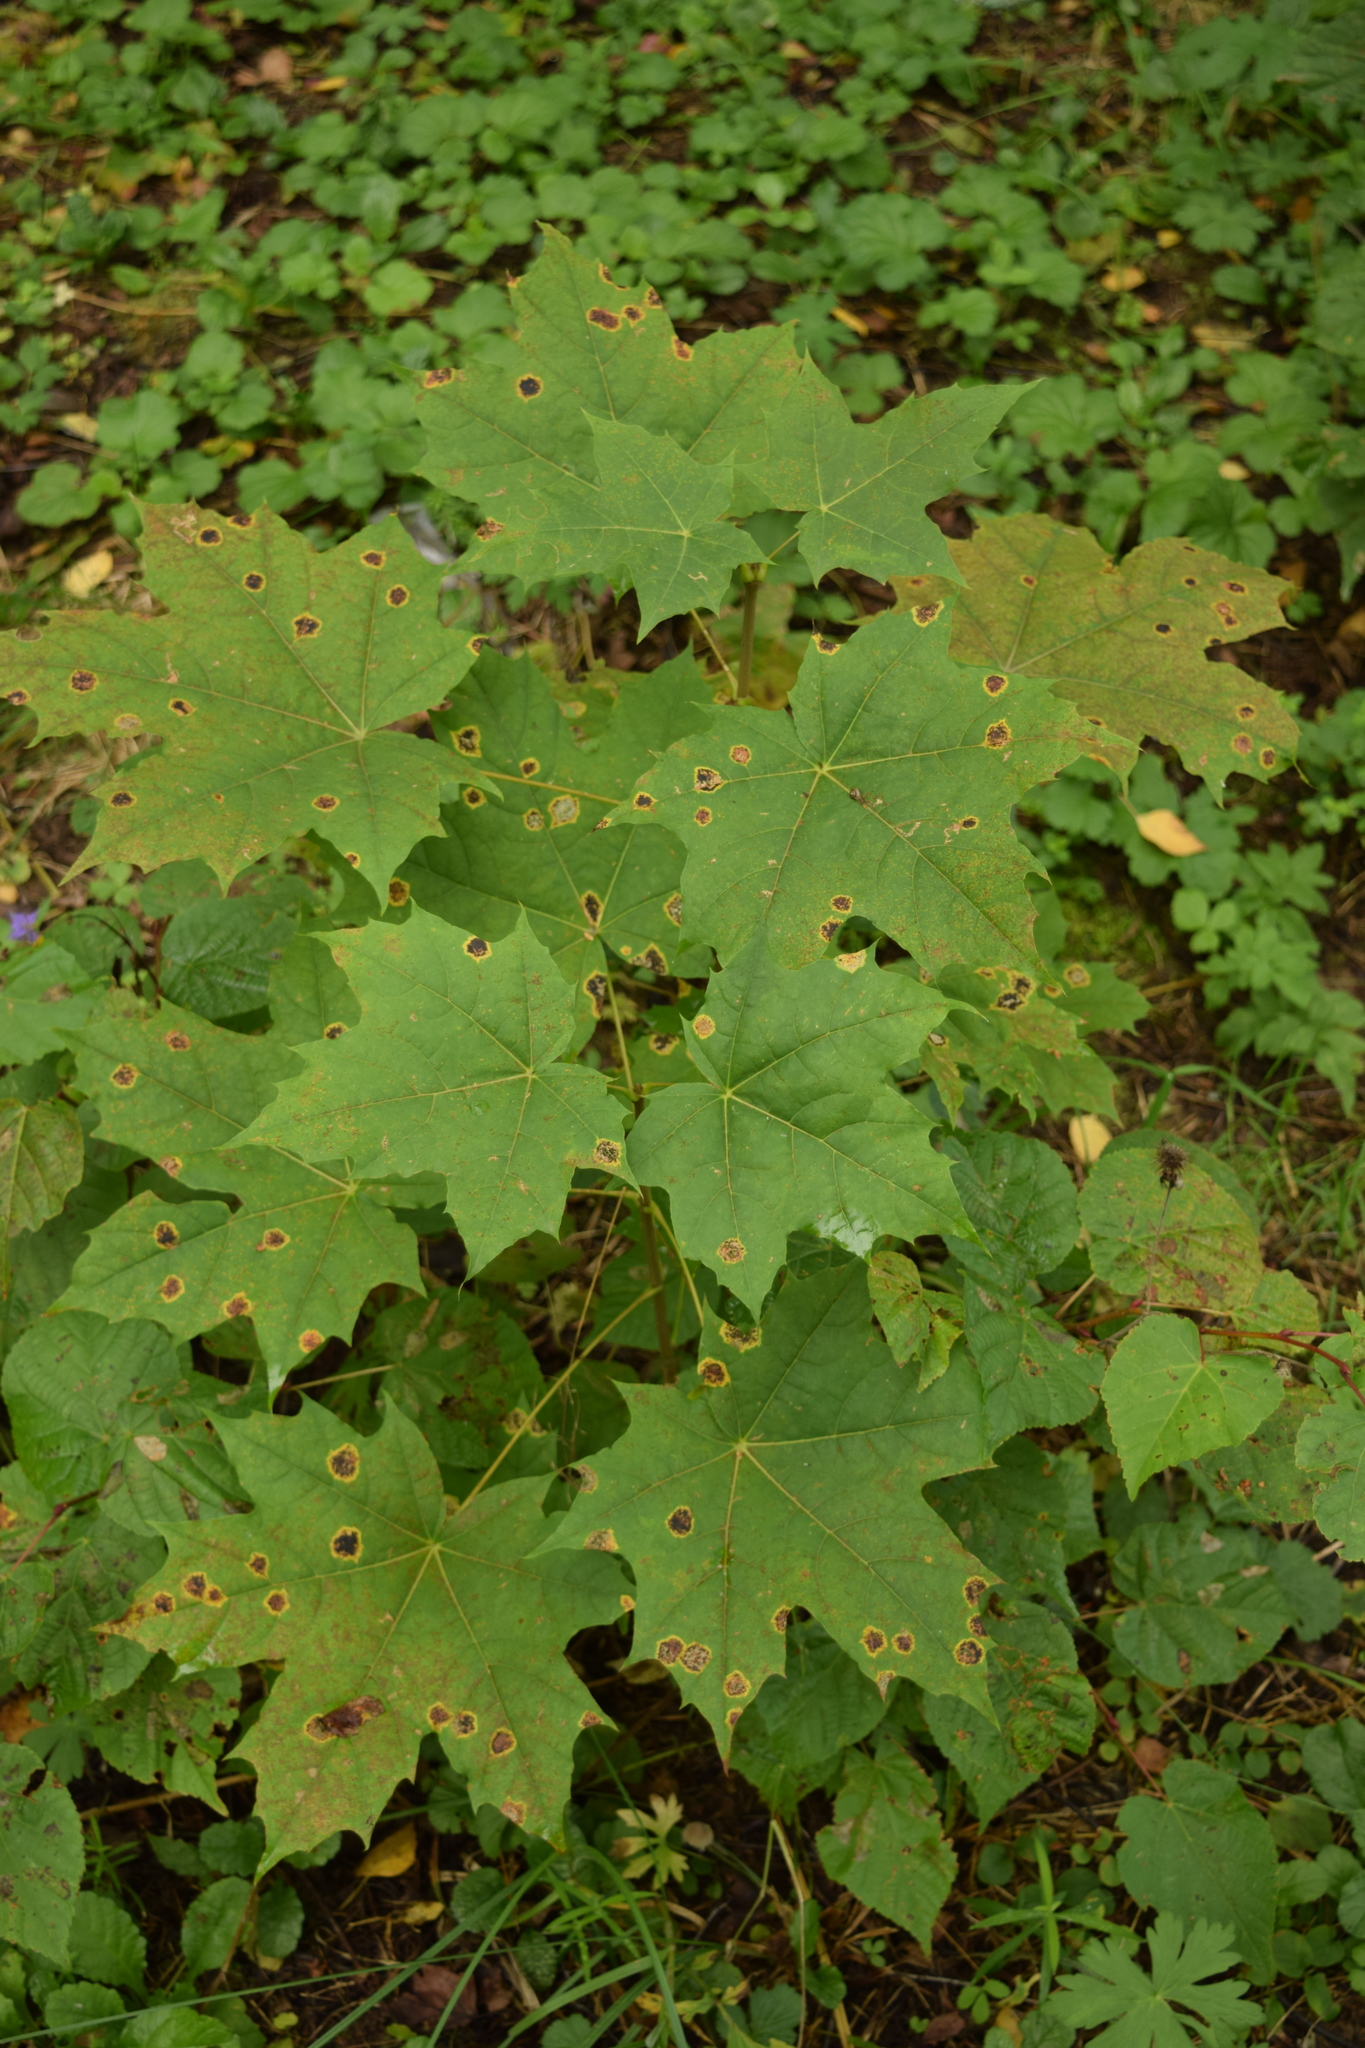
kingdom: Plantae
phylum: Tracheophyta
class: Magnoliopsida
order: Sapindales
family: Sapindaceae
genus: Acer
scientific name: Acer platanoides
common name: Norway maple
